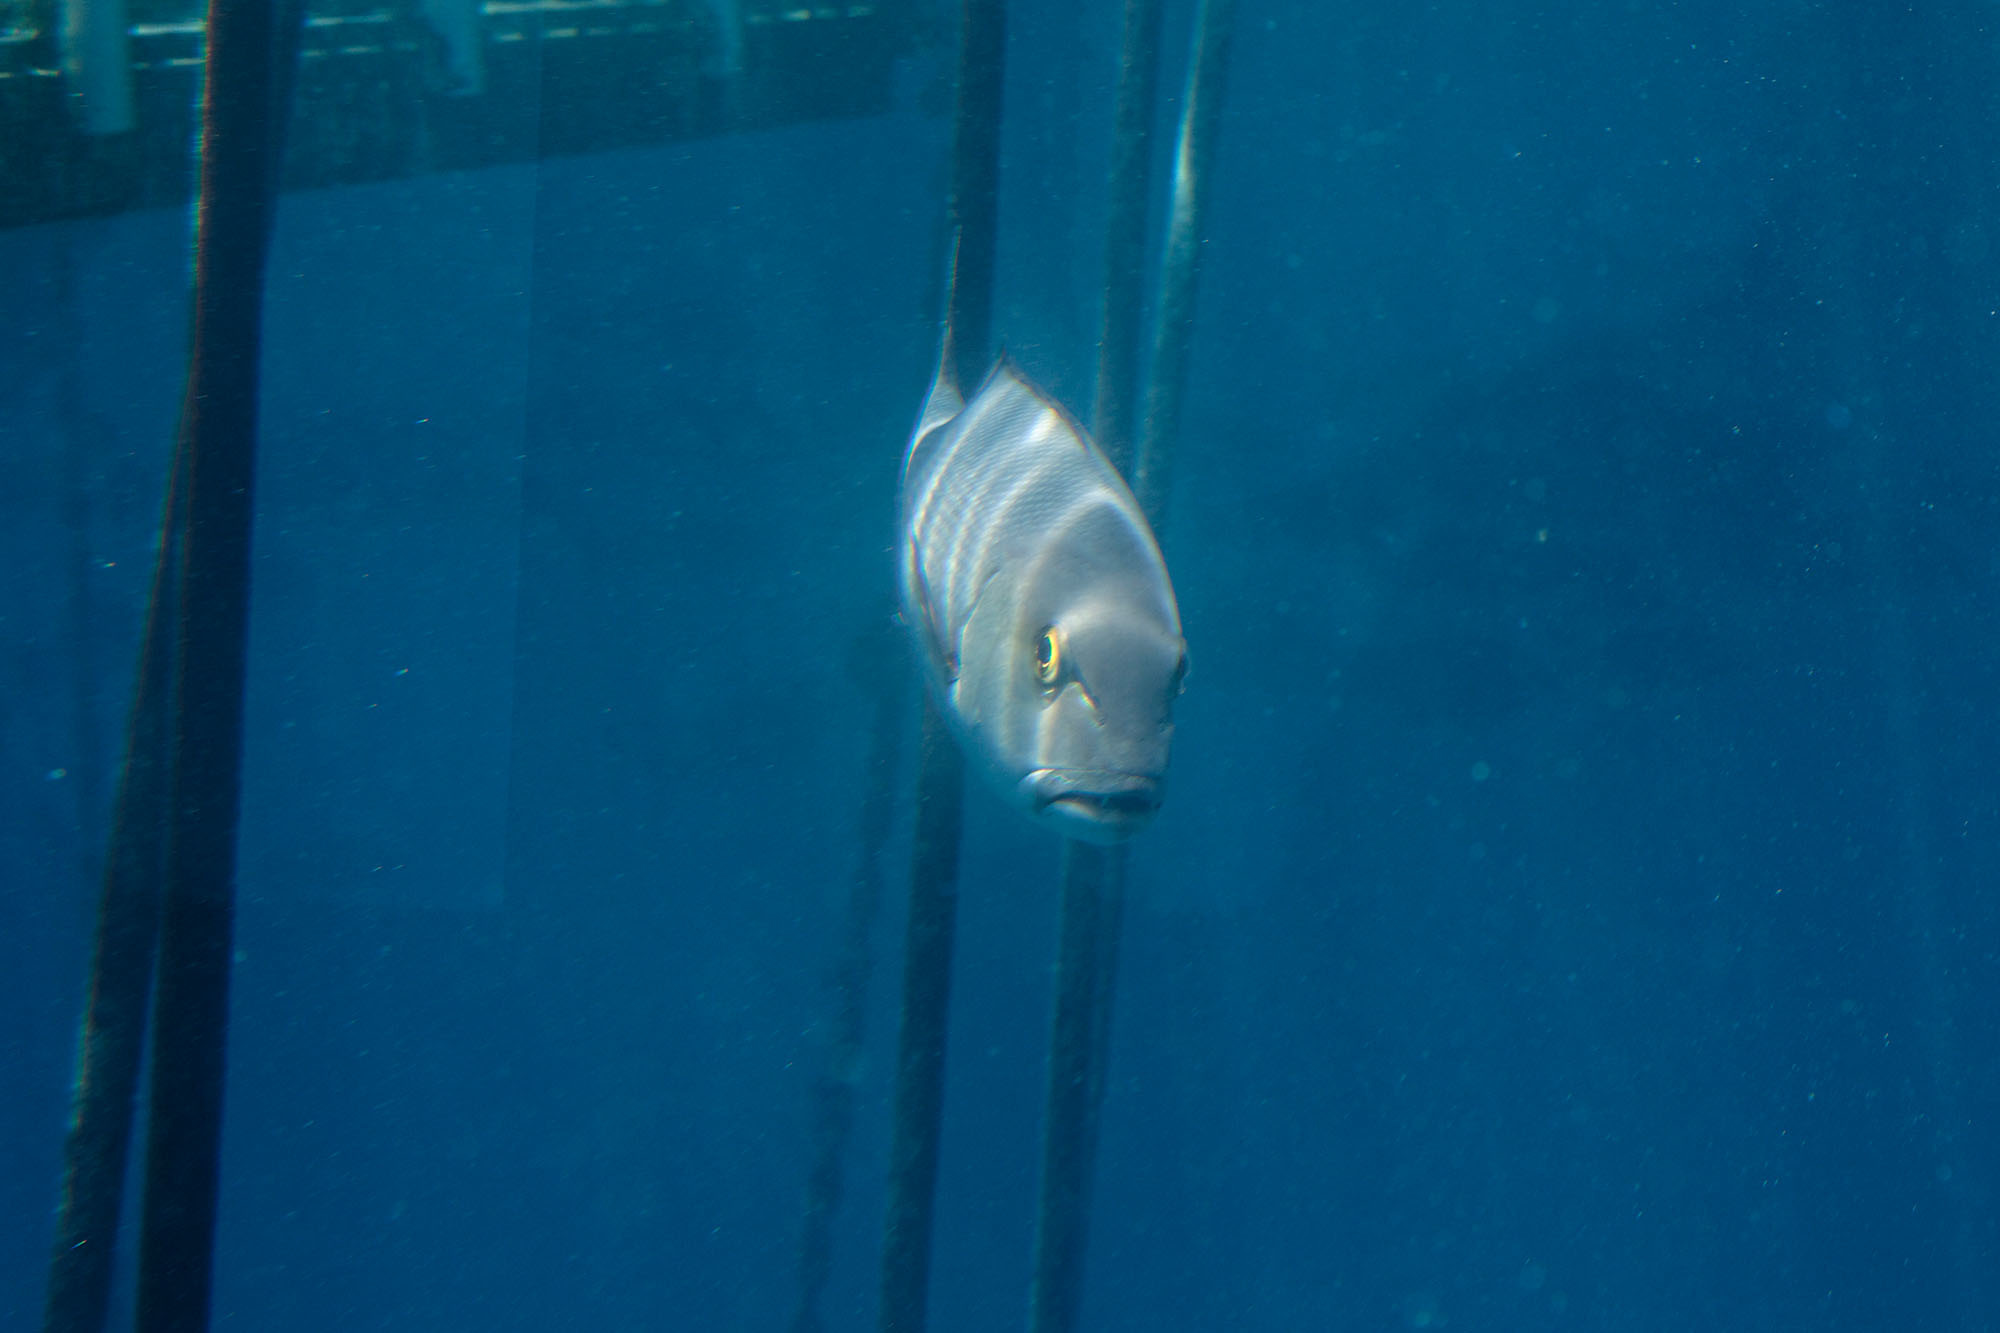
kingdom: Animalia
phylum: Chordata
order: Perciformes
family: Lutjanidae
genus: Lutjanus
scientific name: Lutjanus bohar
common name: Red bass
